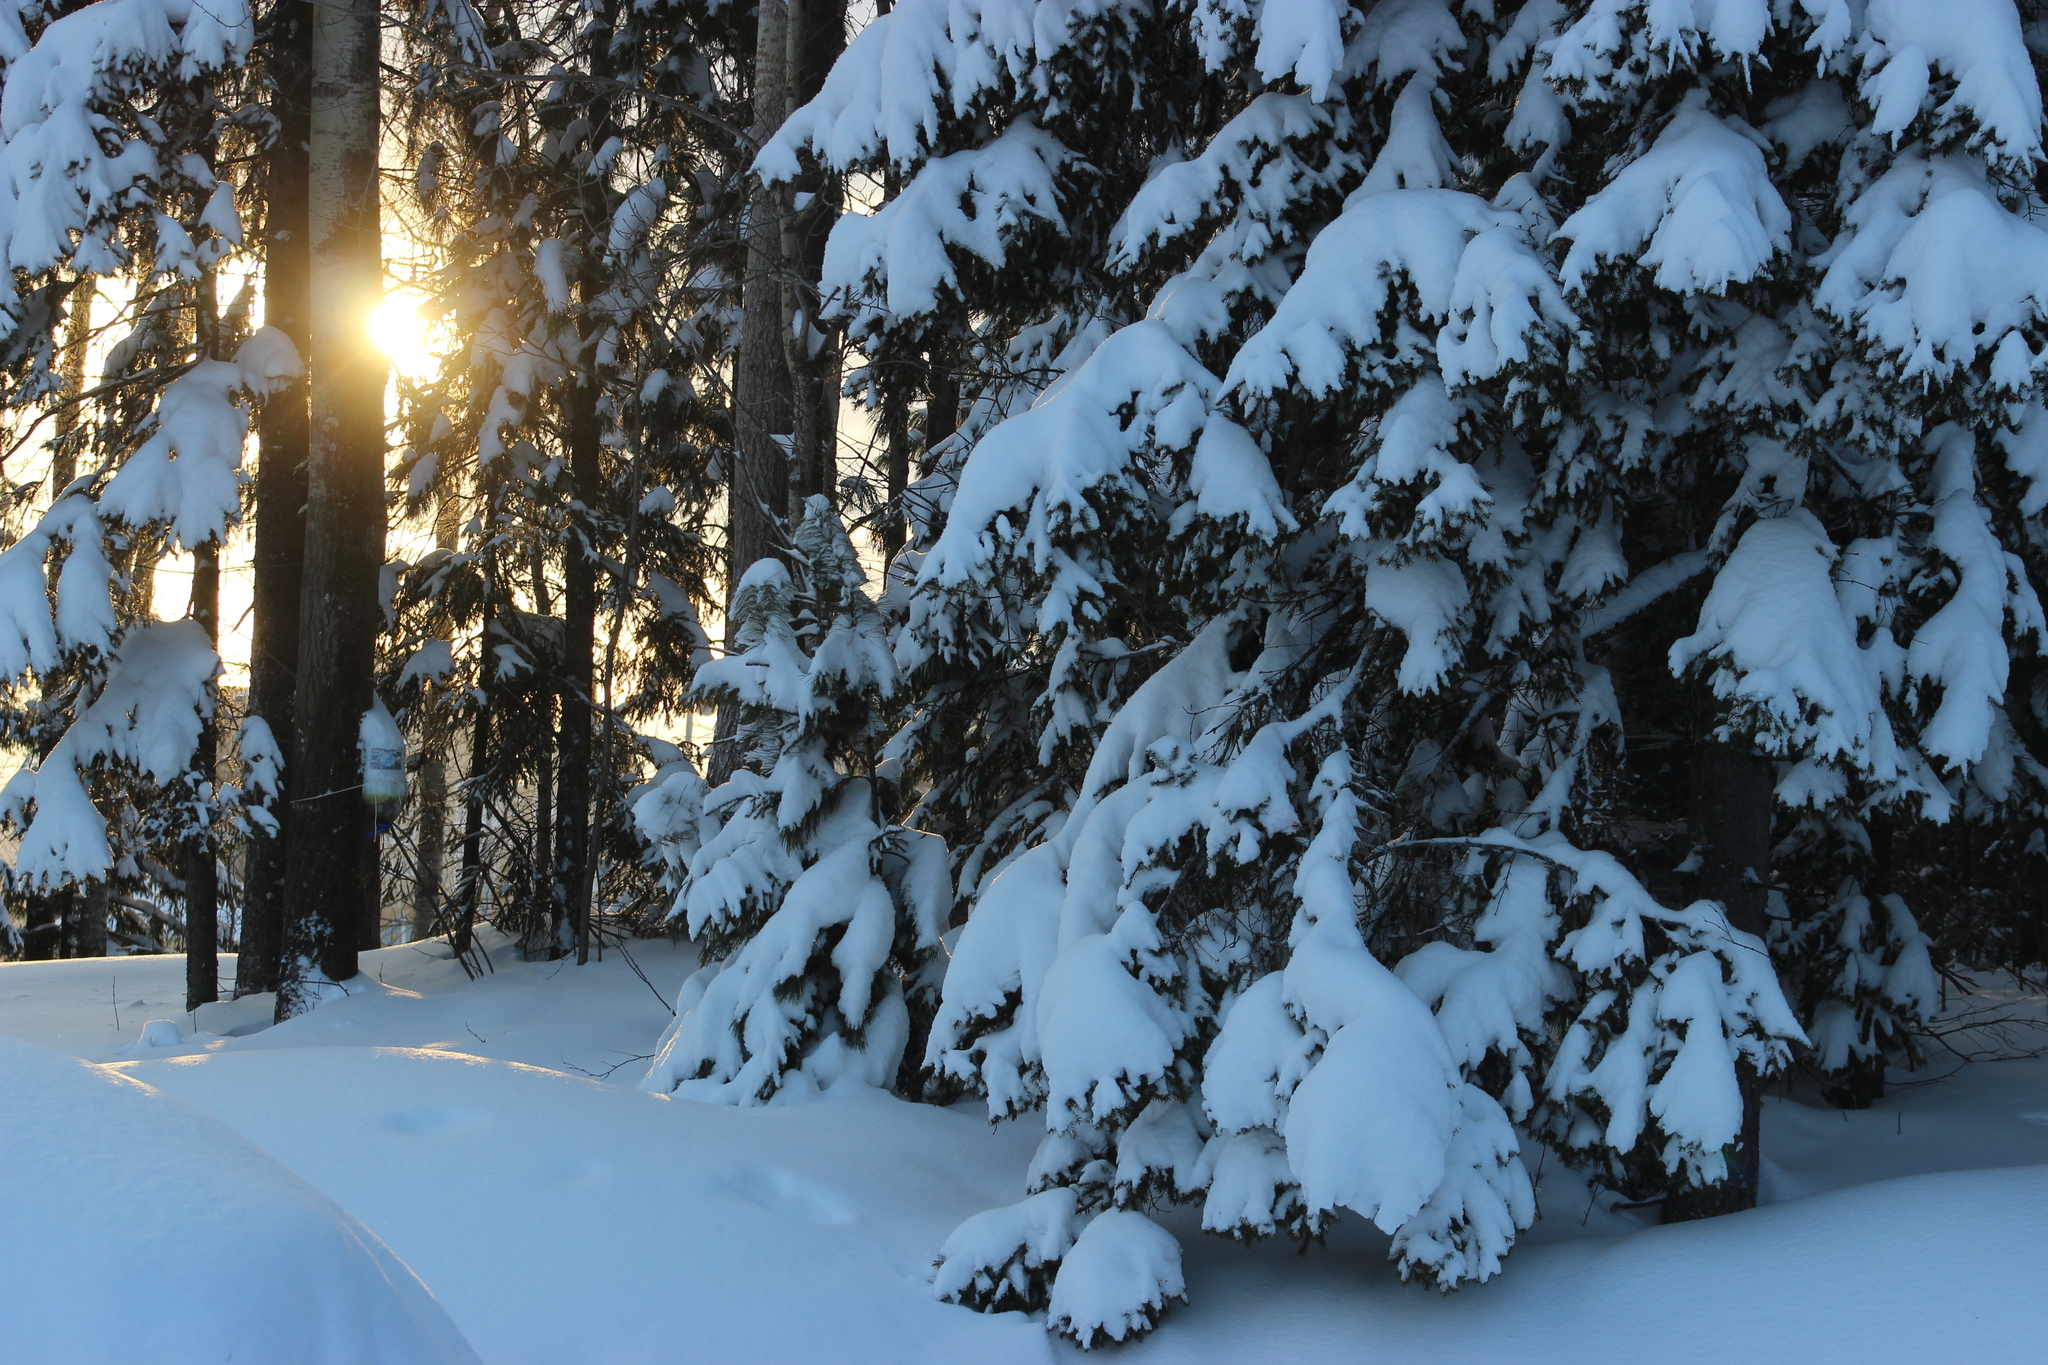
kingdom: Plantae
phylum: Tracheophyta
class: Pinopsida
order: Pinales
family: Pinaceae
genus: Picea
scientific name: Picea obovata
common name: Siberian spruce
